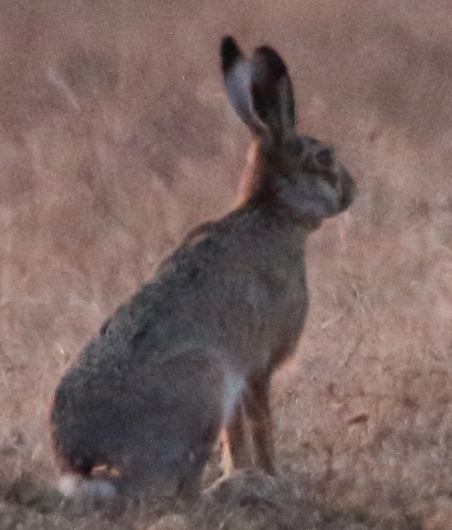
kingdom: Animalia
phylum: Chordata
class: Mammalia
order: Lagomorpha
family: Leporidae
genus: Lepus
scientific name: Lepus europaeus
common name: European hare
